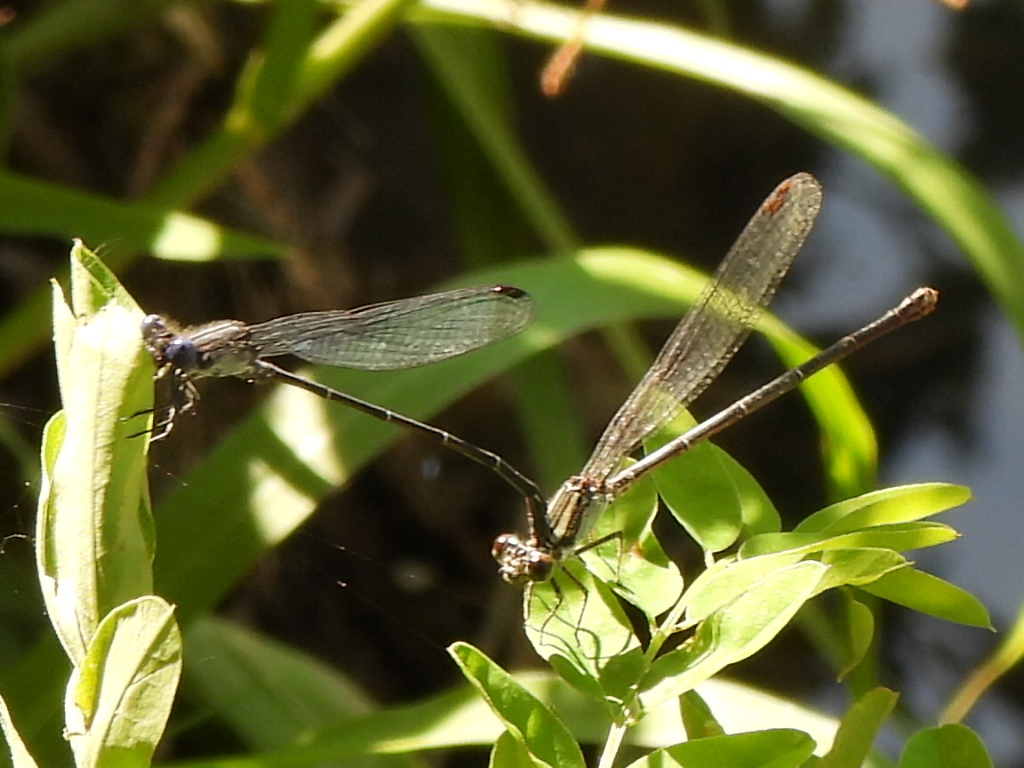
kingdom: Animalia
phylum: Arthropoda
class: Insecta
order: Odonata
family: Coenagrionidae
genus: Argia
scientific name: Argia translata
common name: Dusky dancer
